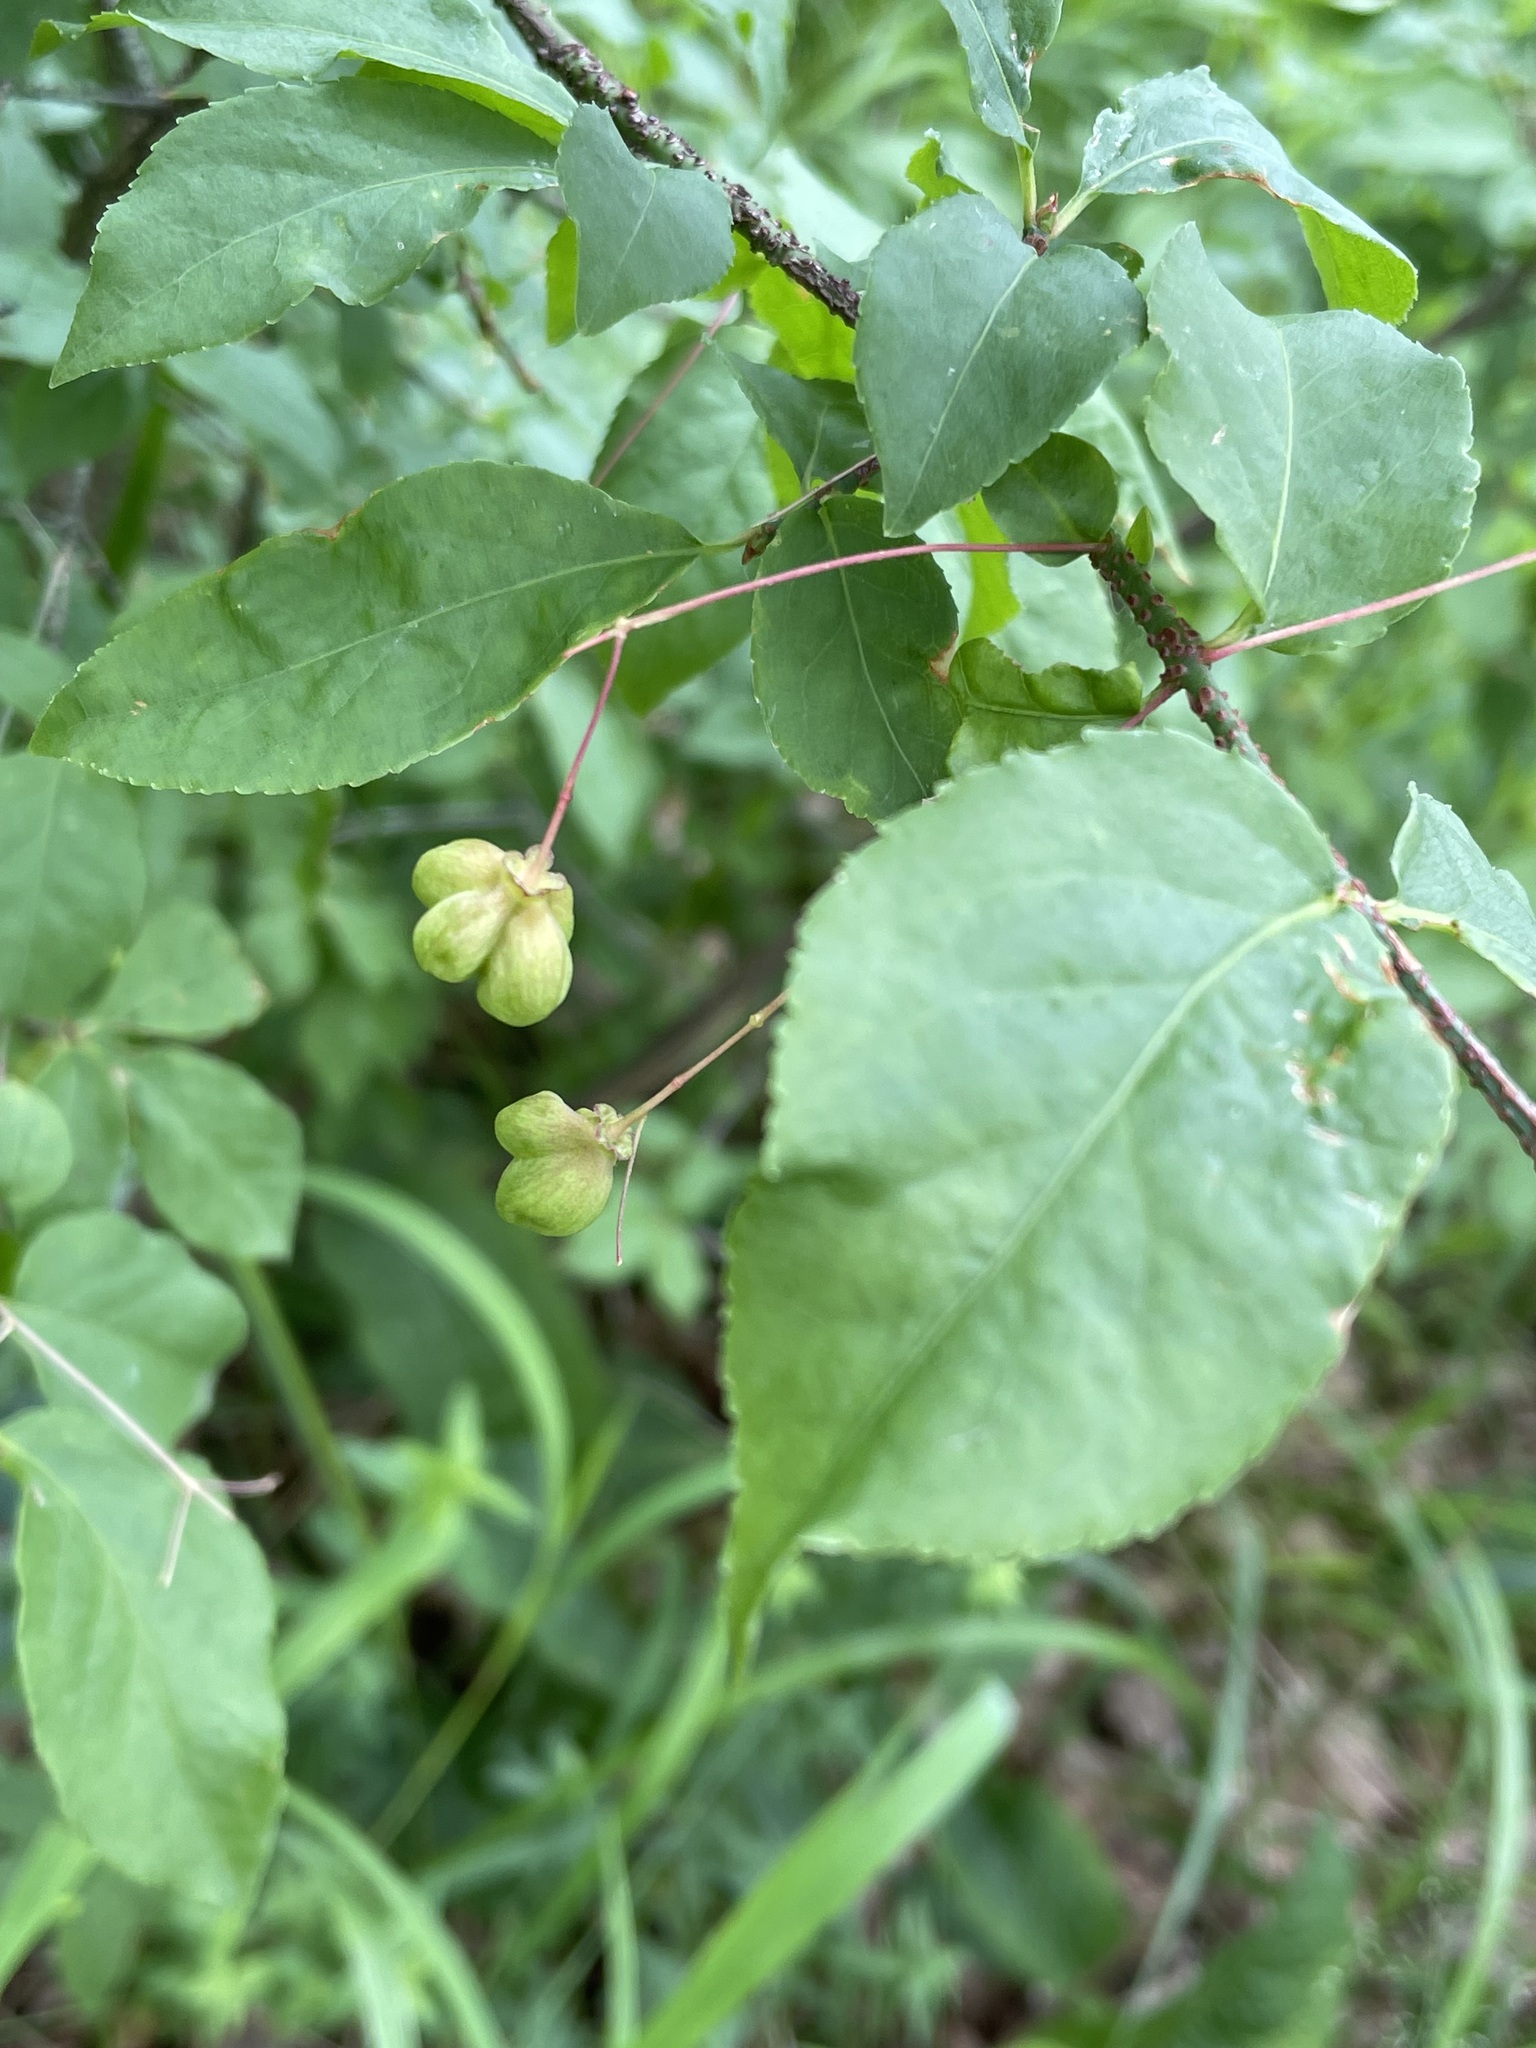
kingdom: Plantae
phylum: Tracheophyta
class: Magnoliopsida
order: Celastrales
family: Celastraceae
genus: Euonymus
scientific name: Euonymus verrucosus
